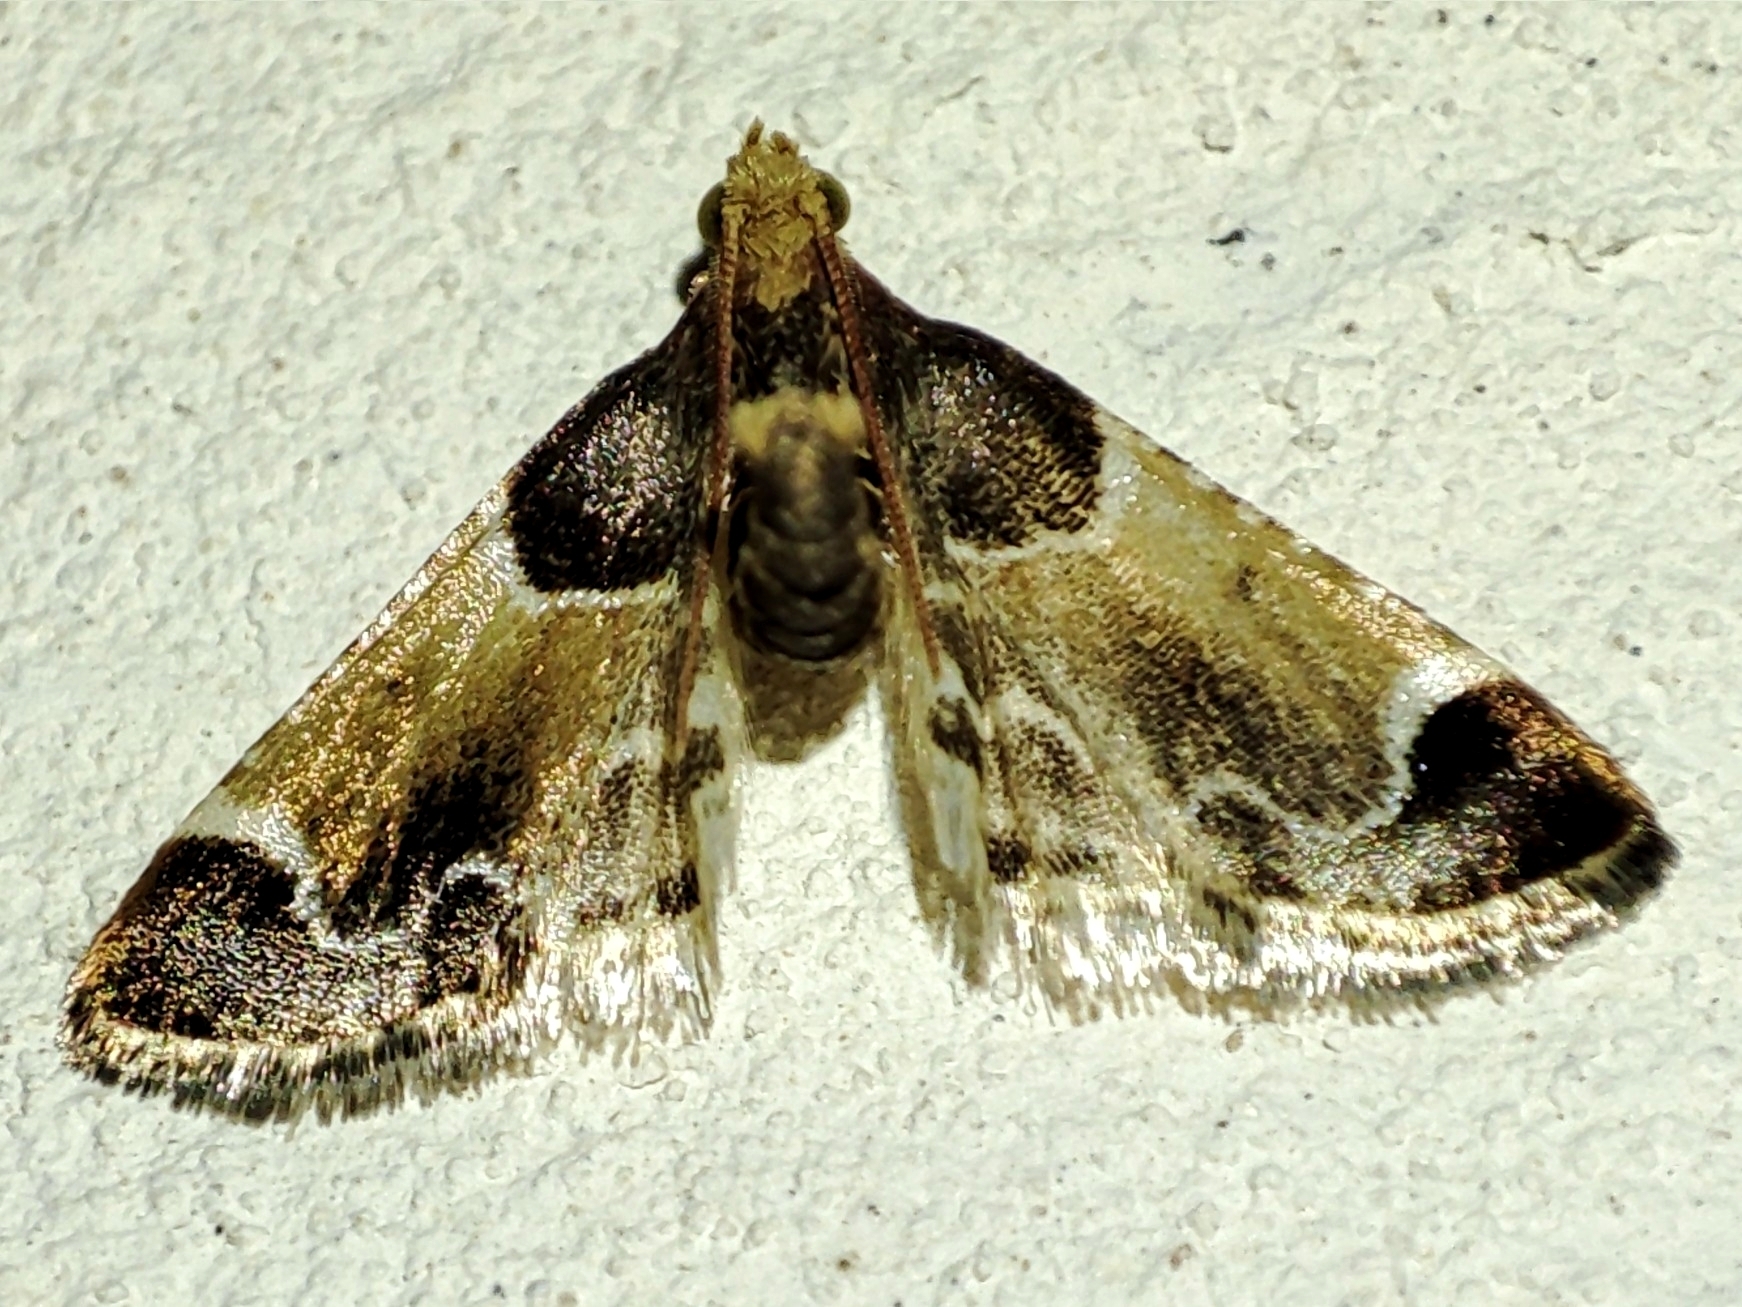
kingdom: Animalia
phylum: Arthropoda
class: Insecta
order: Lepidoptera
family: Pyralidae
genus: Pyralis
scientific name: Pyralis farinalis
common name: Meal moth
